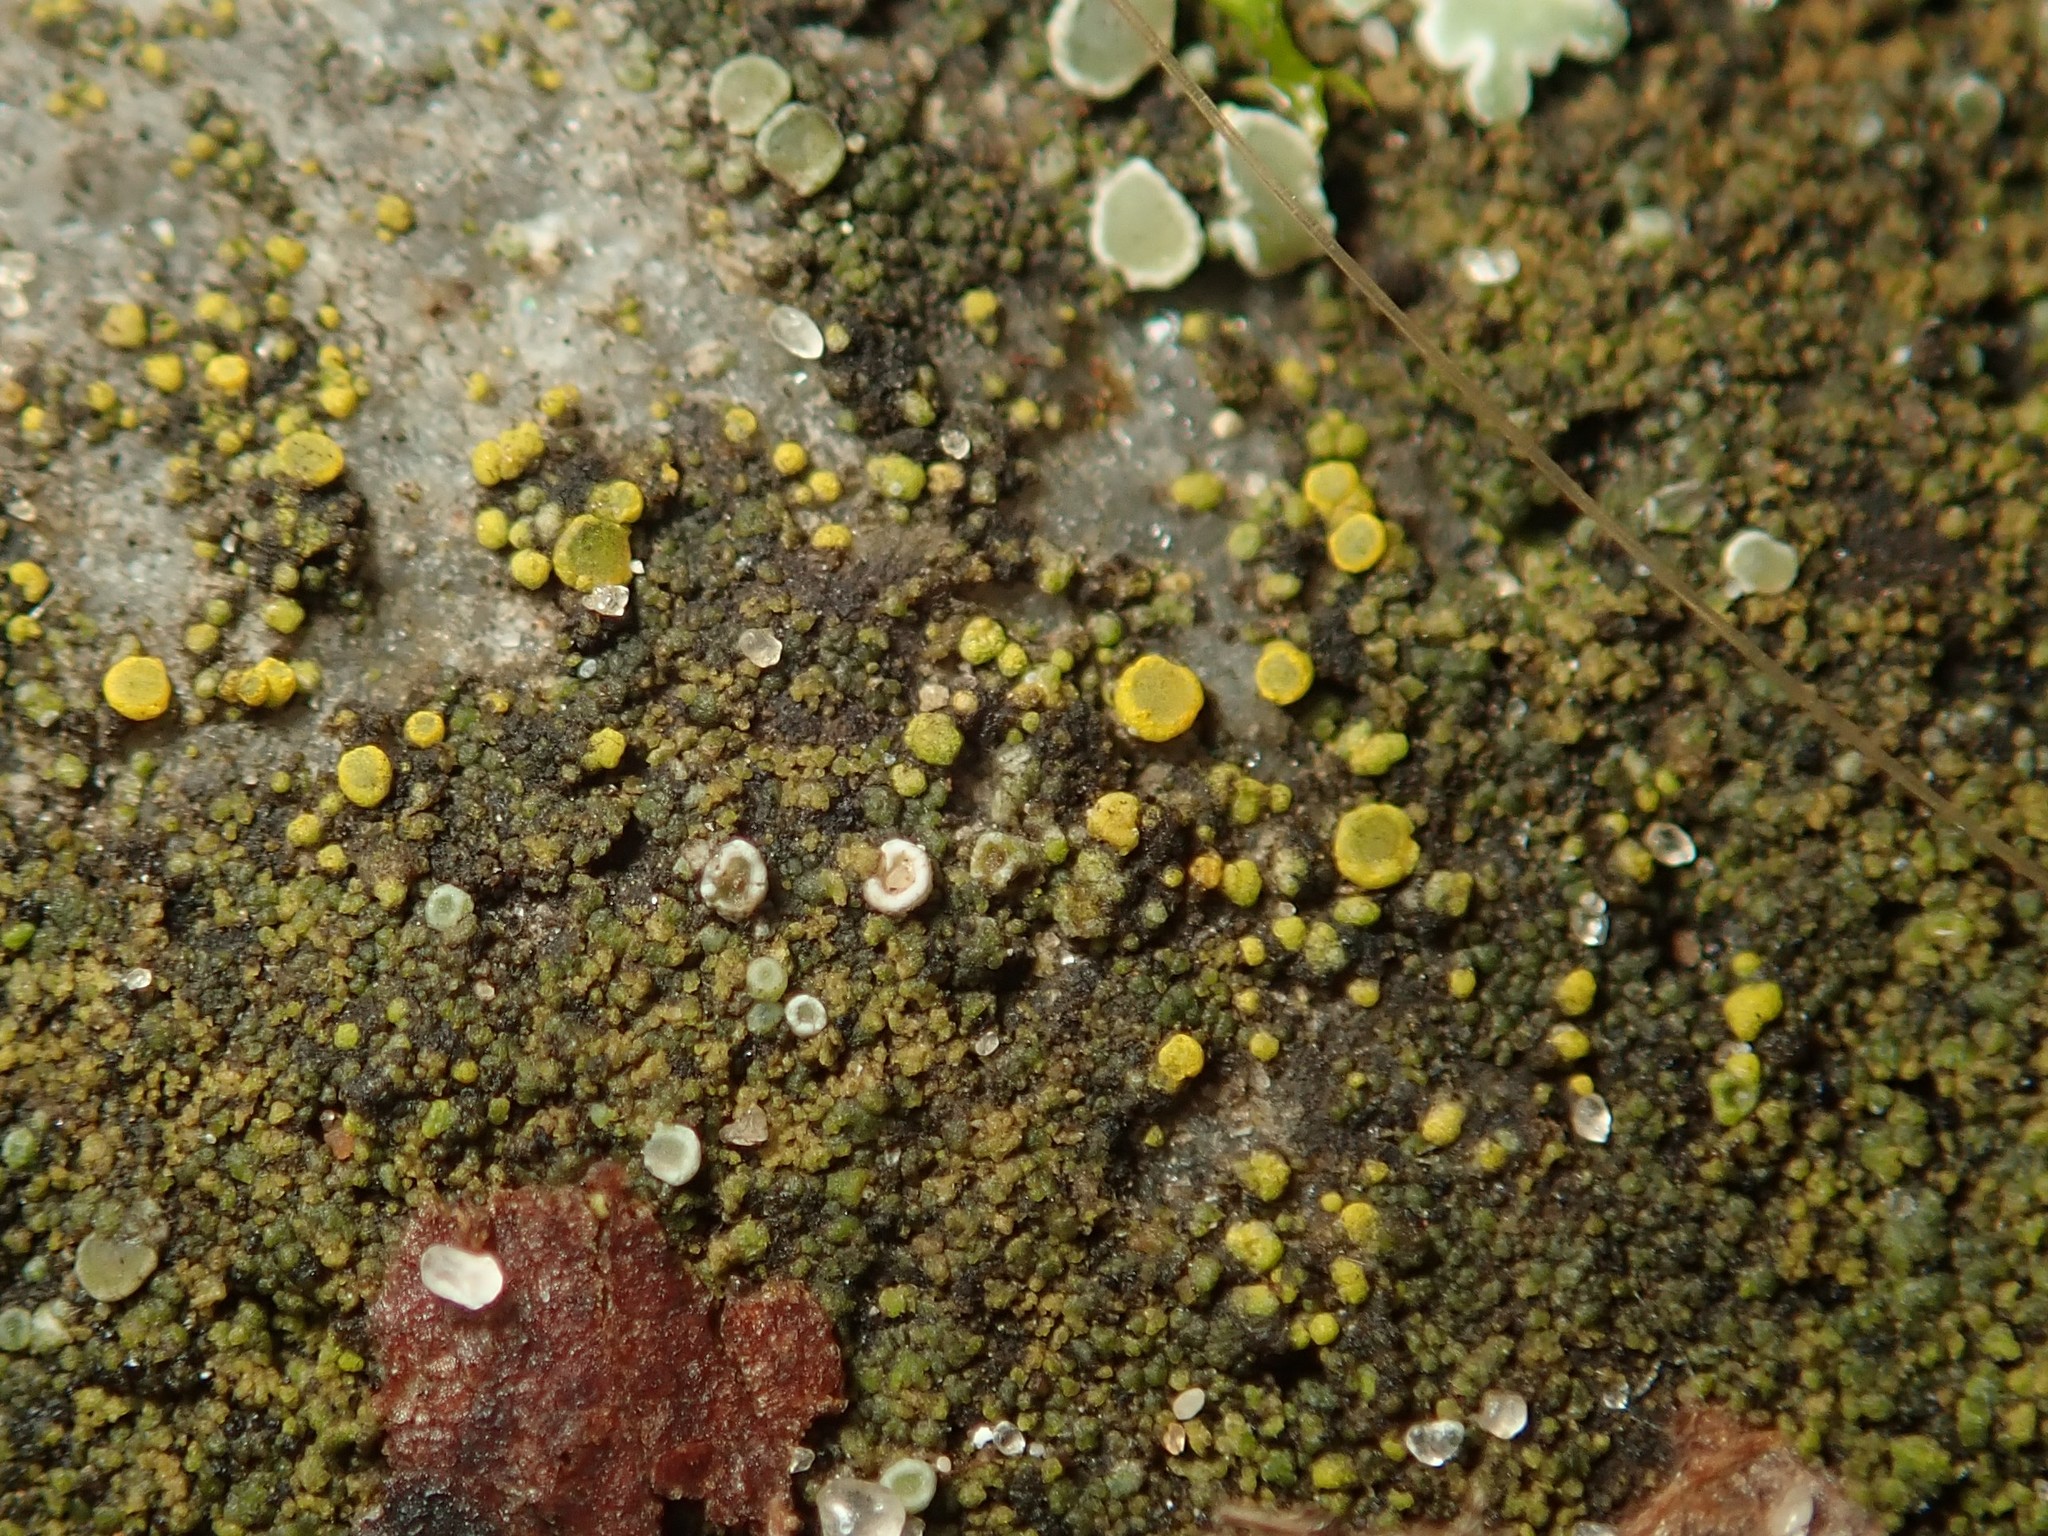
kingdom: Fungi
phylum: Ascomycota
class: Candelariomycetes
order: Candelariales
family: Candelariaceae
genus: Candelariella
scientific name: Candelariella aurella
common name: Hidden goldspeck lichen
